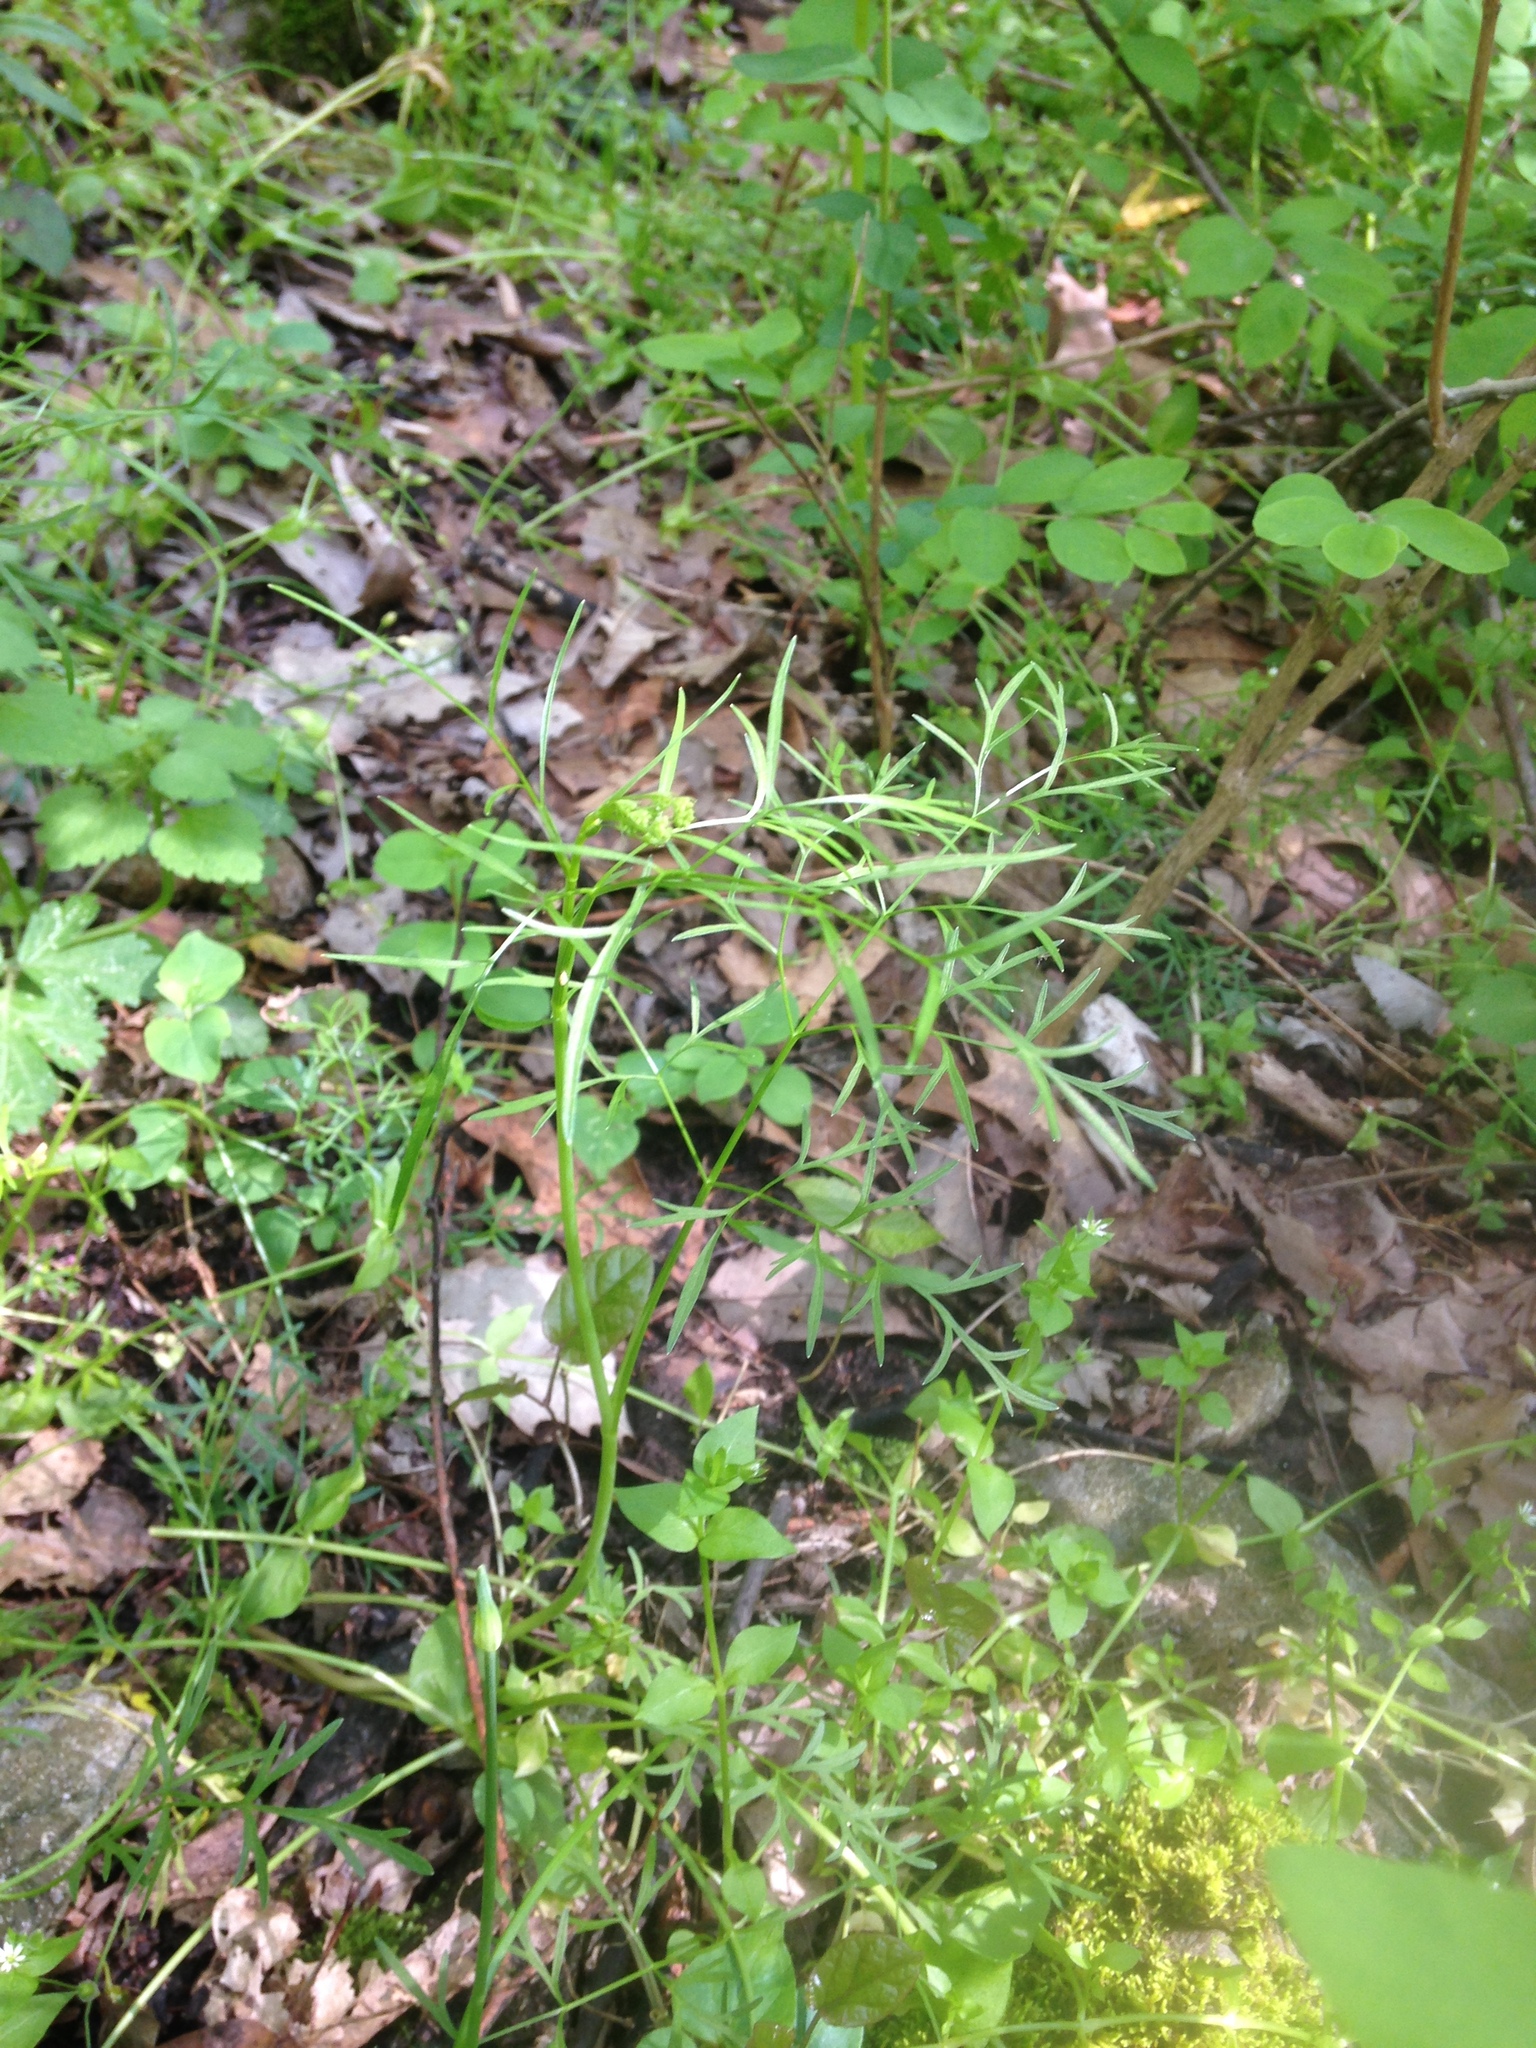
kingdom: Plantae
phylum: Tracheophyta
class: Magnoliopsida
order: Apiales
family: Apiaceae
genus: Perideridia
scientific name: Perideridia americana
